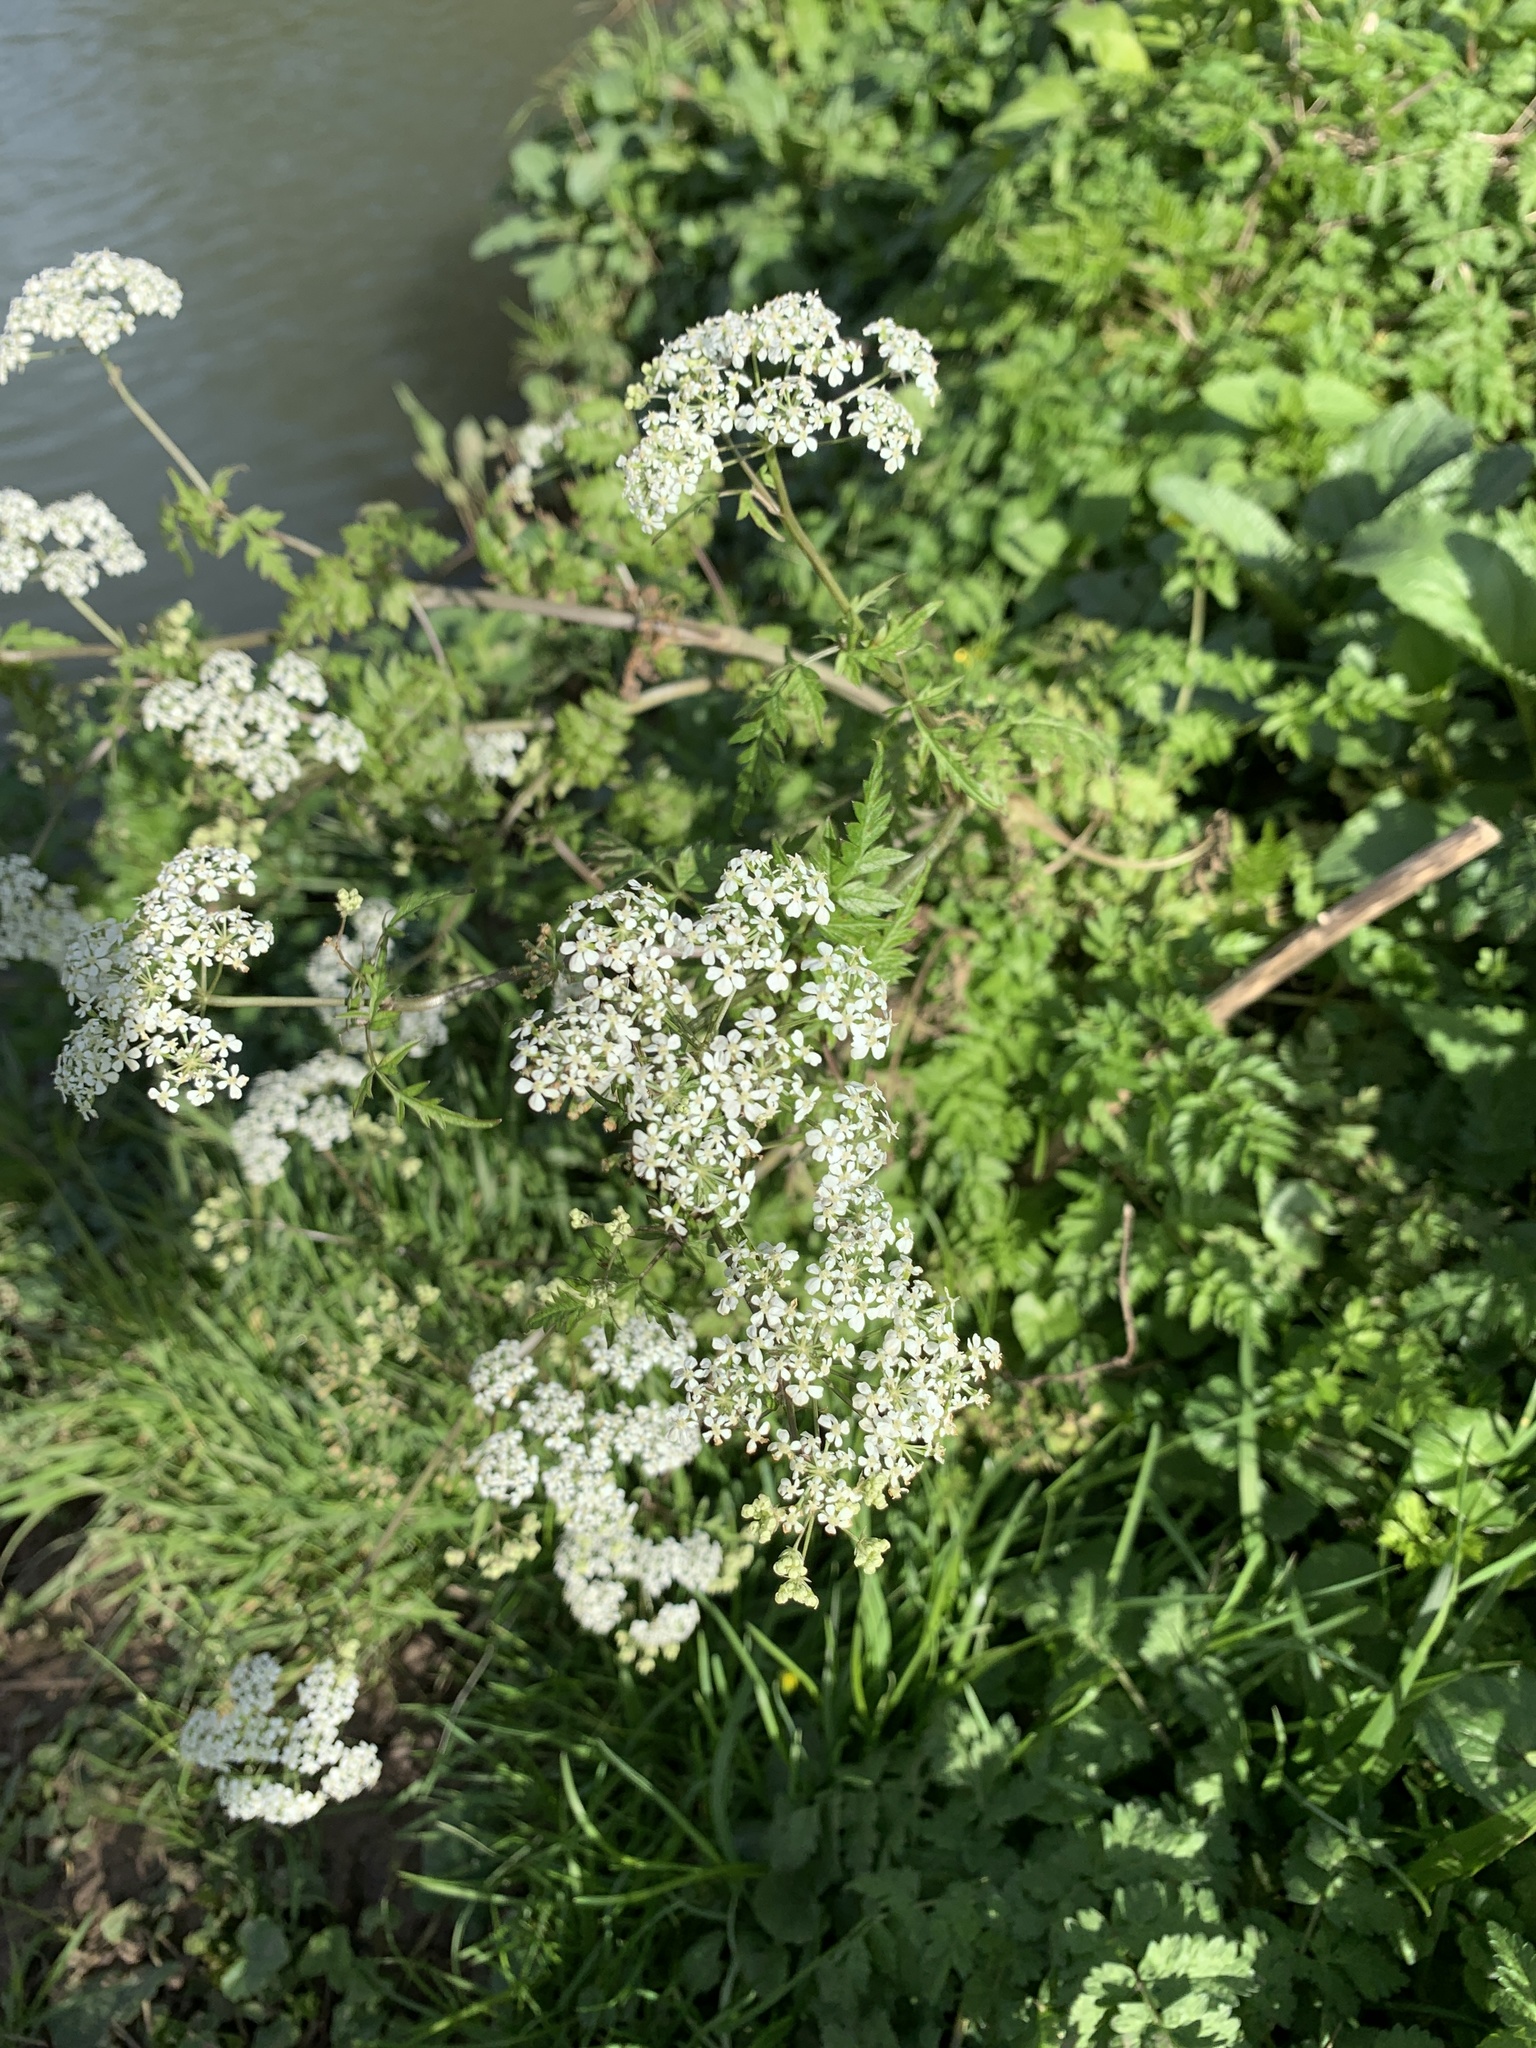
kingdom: Plantae
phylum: Tracheophyta
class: Magnoliopsida
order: Apiales
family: Apiaceae
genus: Anthriscus
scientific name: Anthriscus sylvestris
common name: Cow parsley
